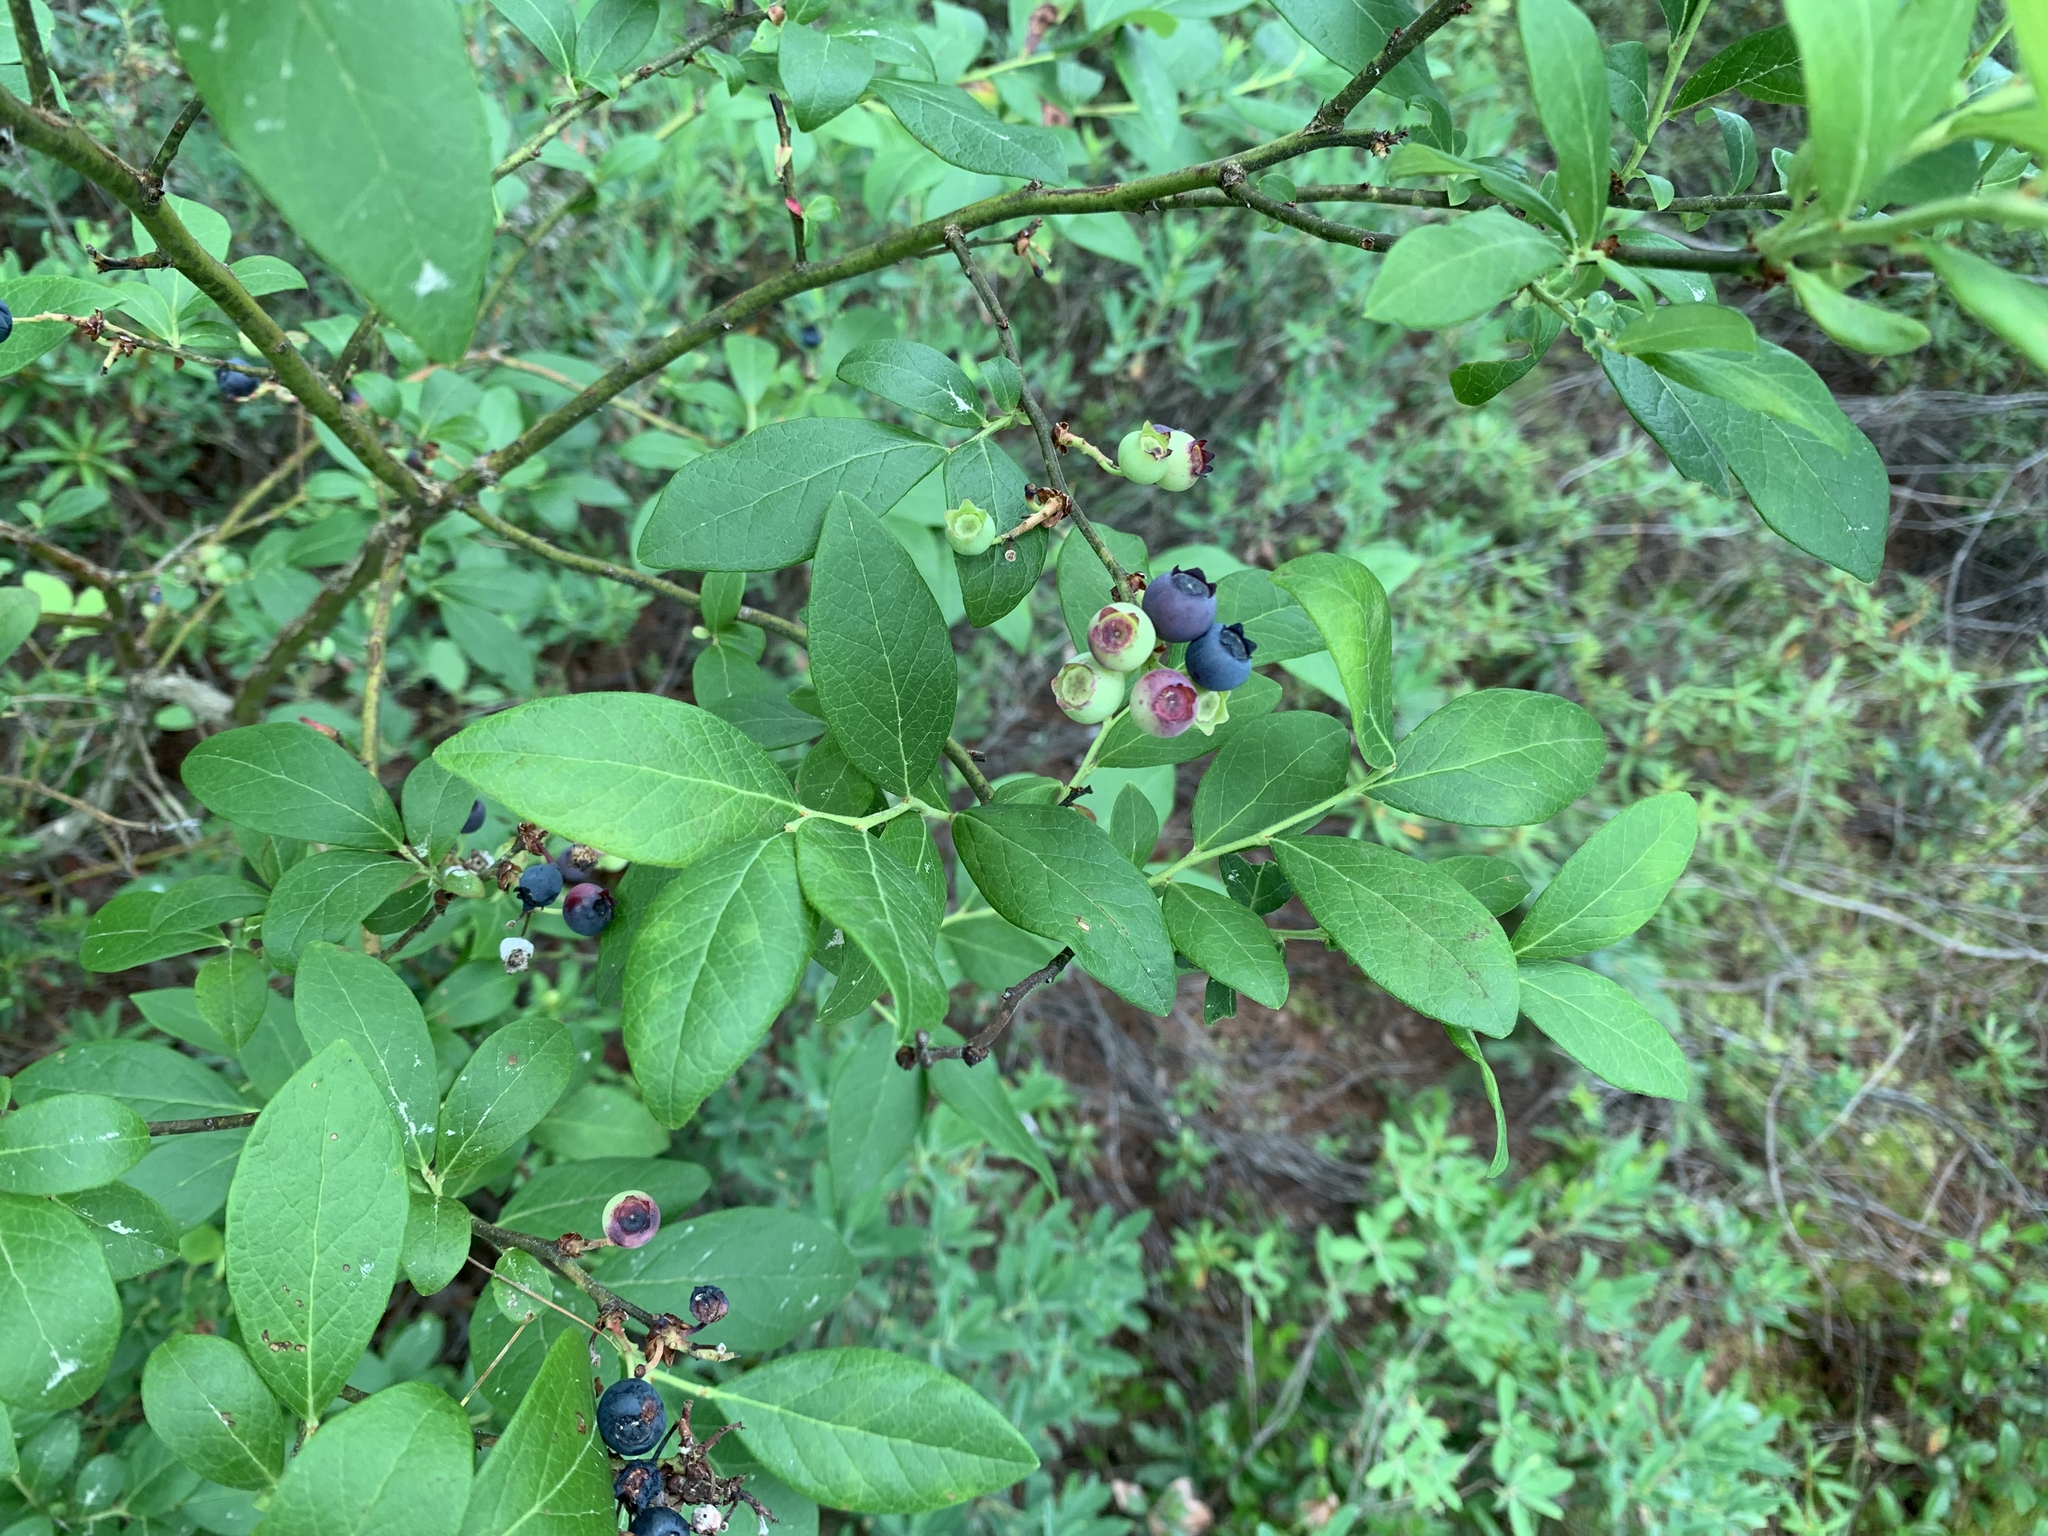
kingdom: Plantae
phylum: Tracheophyta
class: Magnoliopsida
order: Ericales
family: Ericaceae
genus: Vaccinium
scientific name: Vaccinium corymbosum
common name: Blueberry
